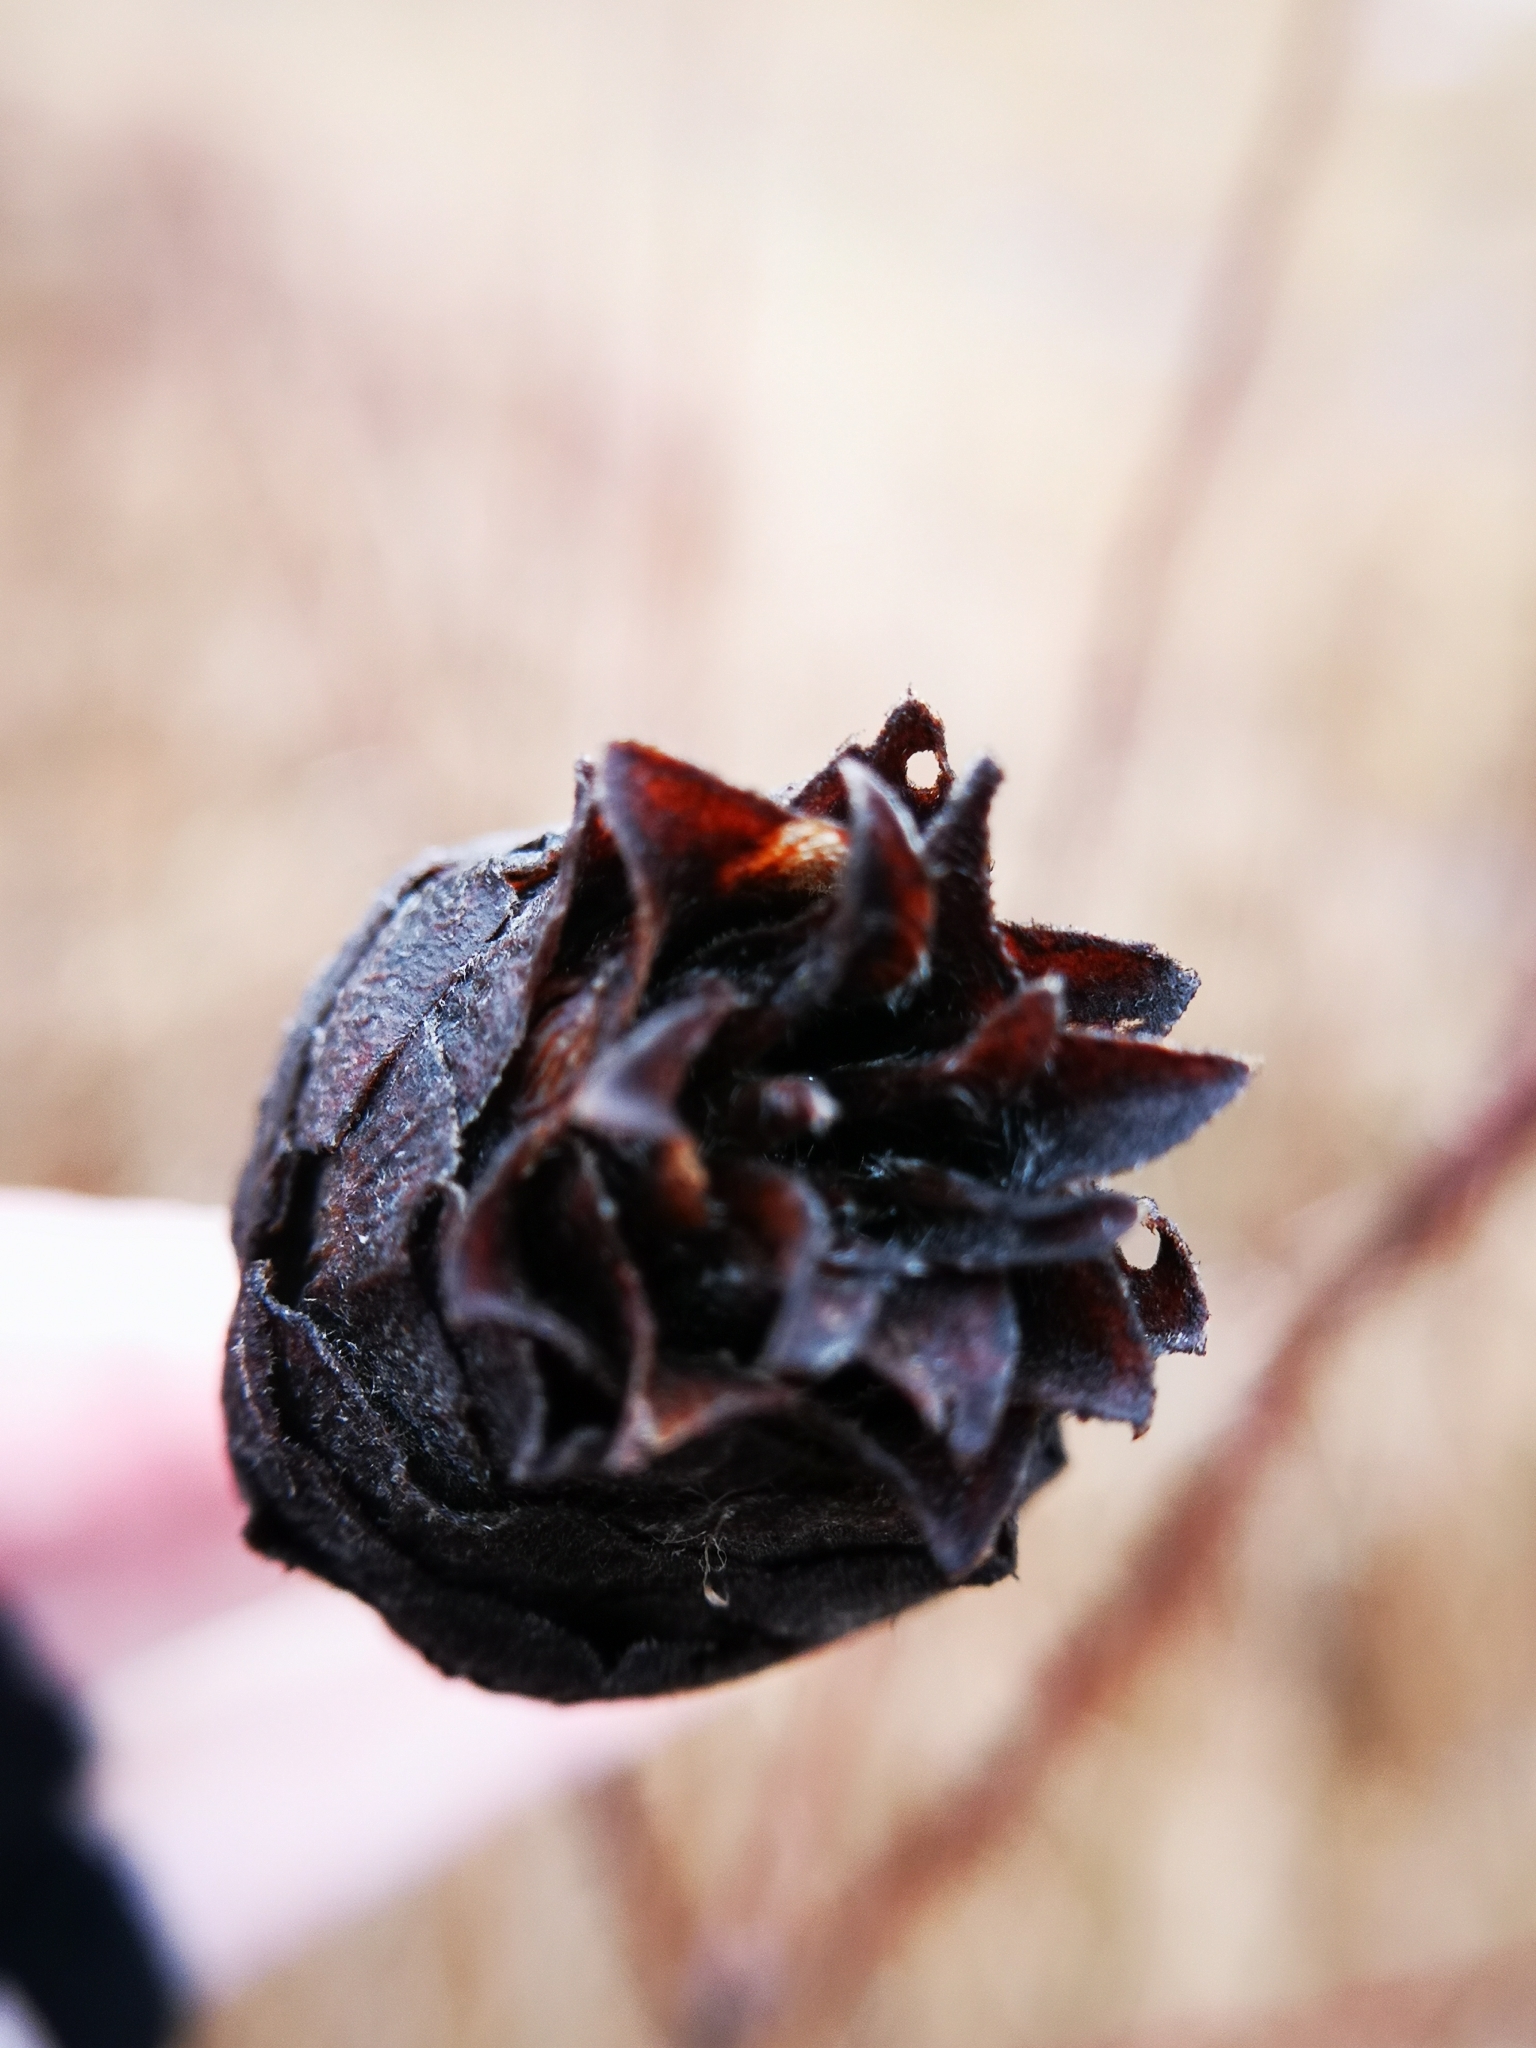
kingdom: Animalia
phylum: Arthropoda
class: Insecta
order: Diptera
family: Cecidomyiidae
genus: Rabdophaga
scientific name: Rabdophaga strobiloides
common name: Willow pinecone gall midge
